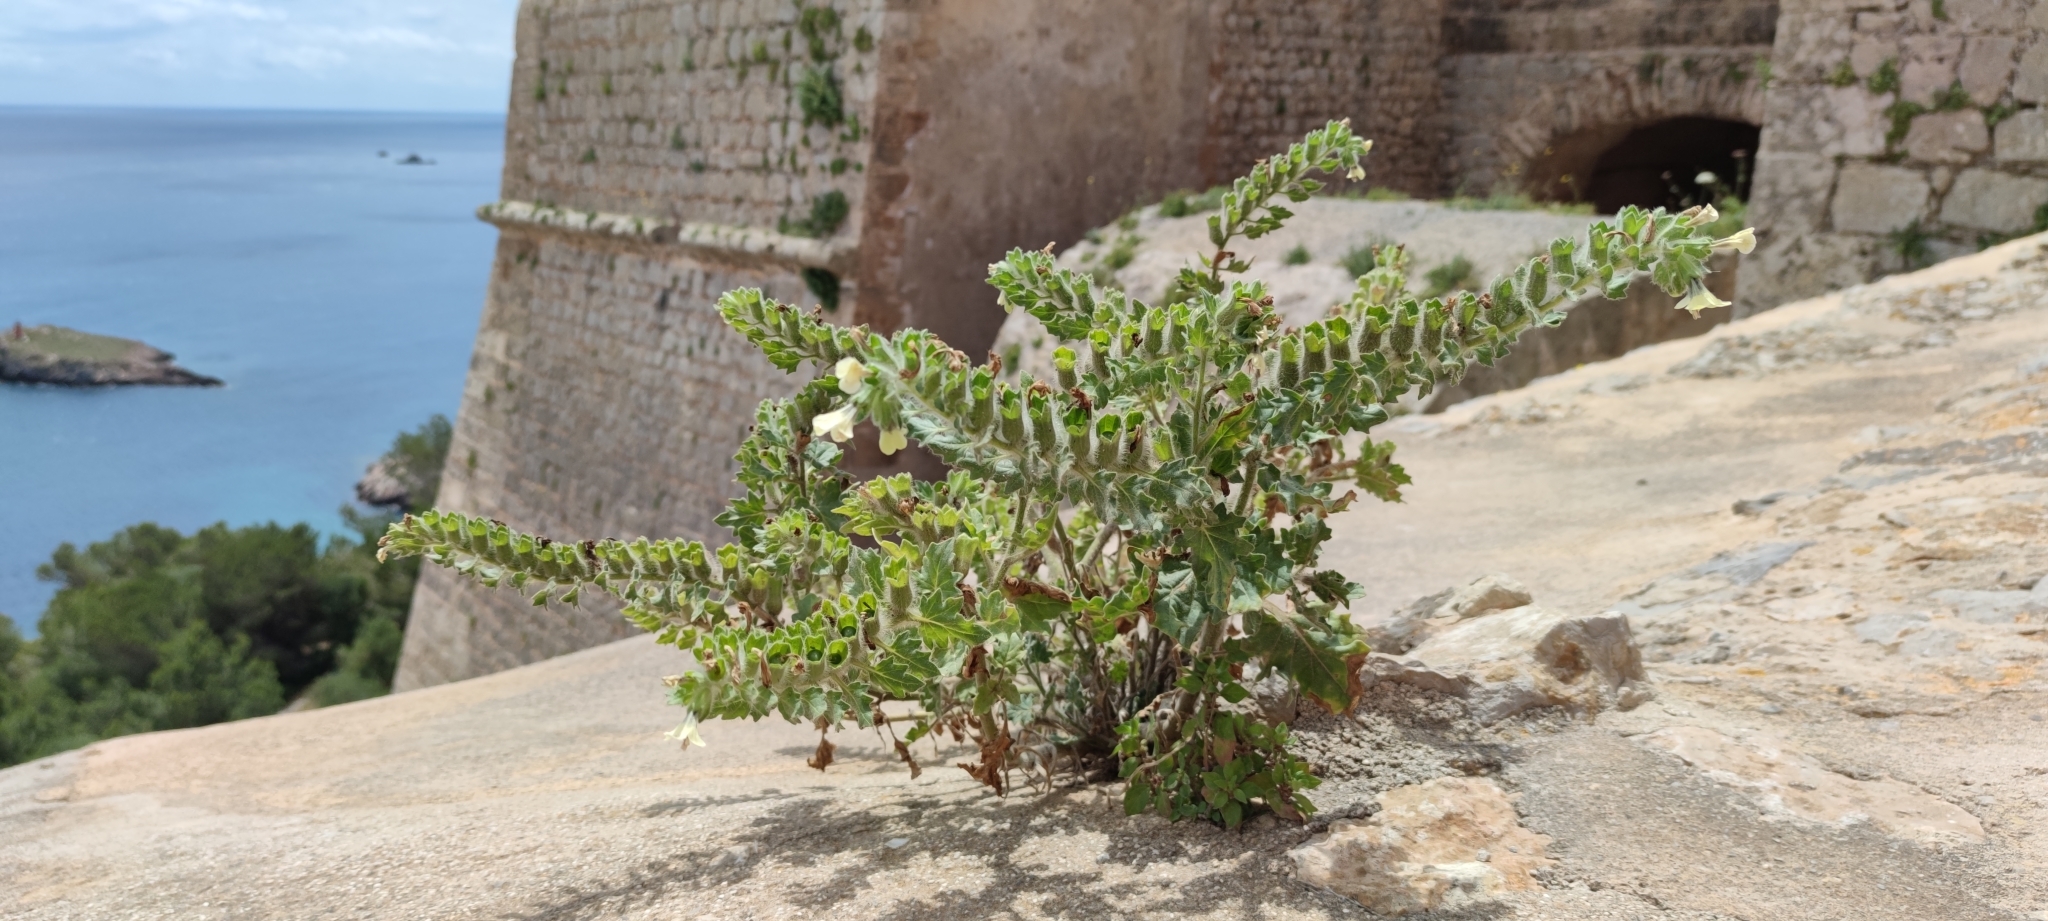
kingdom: Plantae
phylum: Tracheophyta
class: Magnoliopsida
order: Solanales
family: Solanaceae
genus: Hyoscyamus
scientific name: Hyoscyamus albus
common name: White henbane
